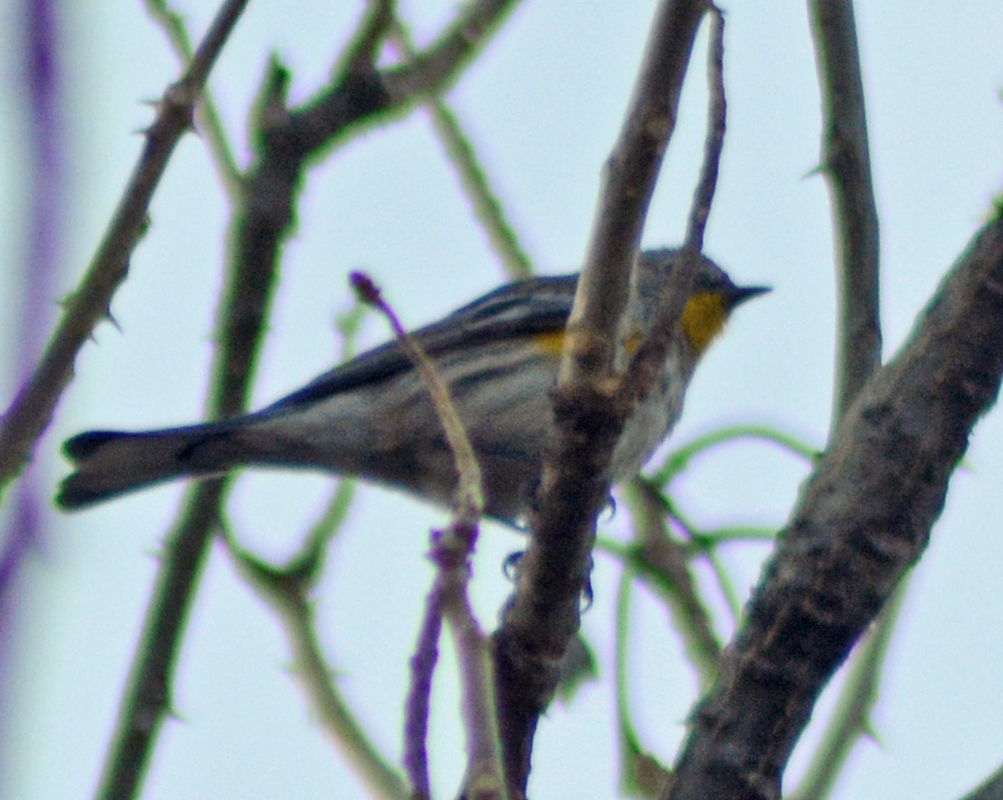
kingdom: Animalia
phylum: Chordata
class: Aves
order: Passeriformes
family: Parulidae
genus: Setophaga
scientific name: Setophaga auduboni
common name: Audubon's warbler
